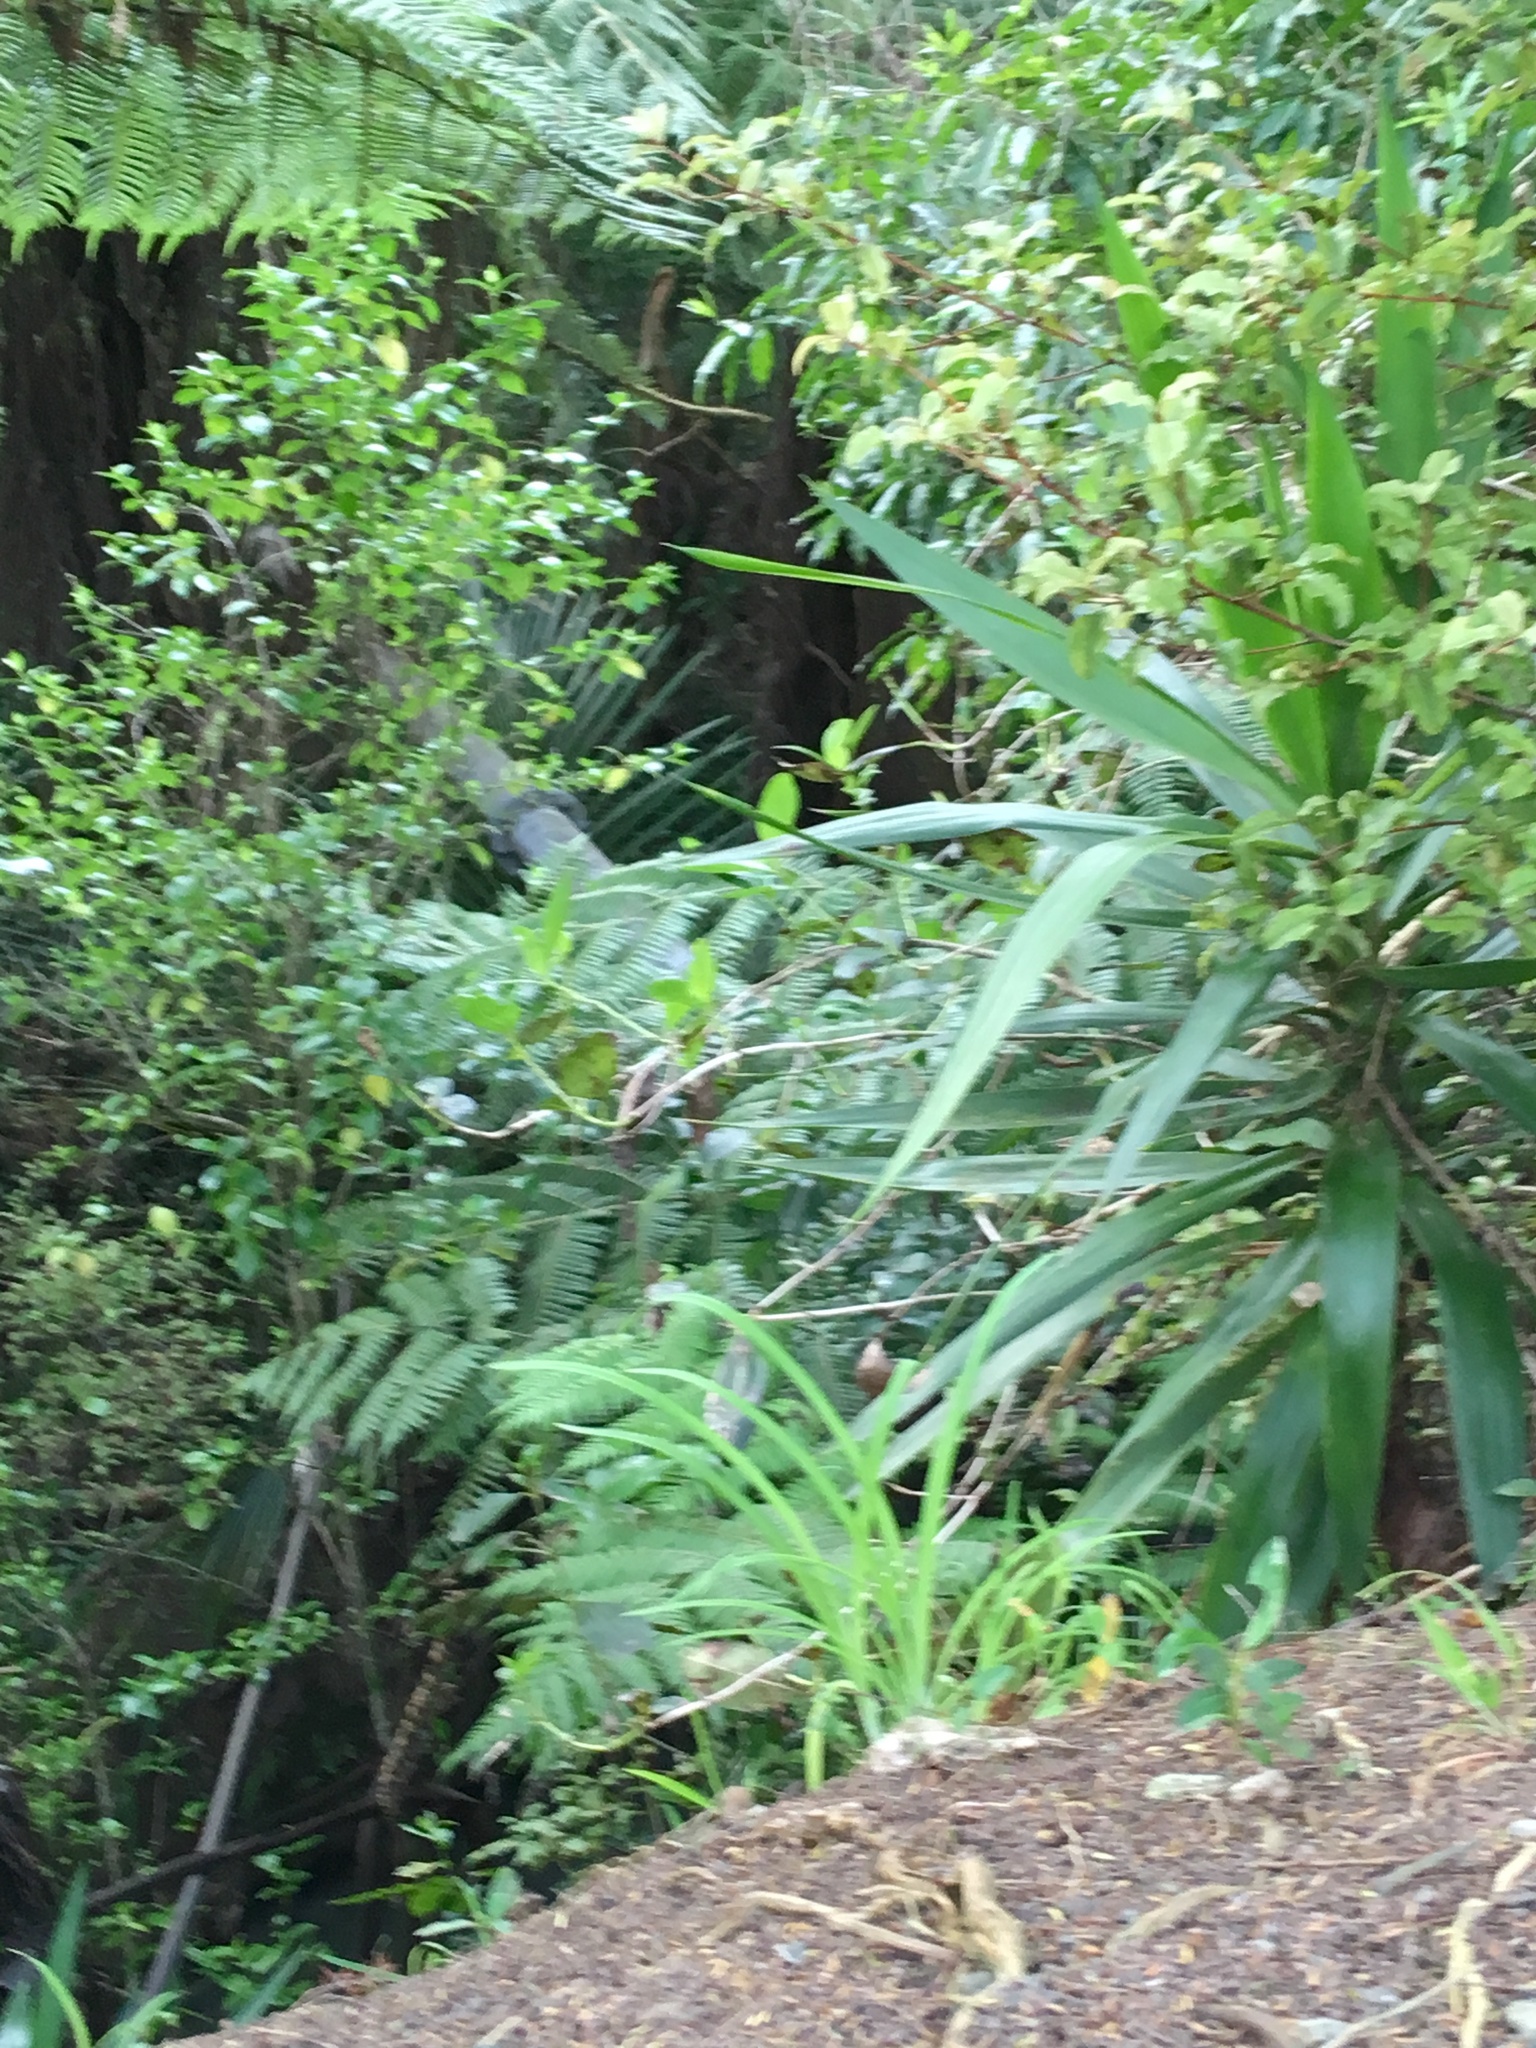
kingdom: Plantae
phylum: Tracheophyta
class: Magnoliopsida
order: Gentianales
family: Loganiaceae
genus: Geniostoma
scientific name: Geniostoma ligustrifolium
